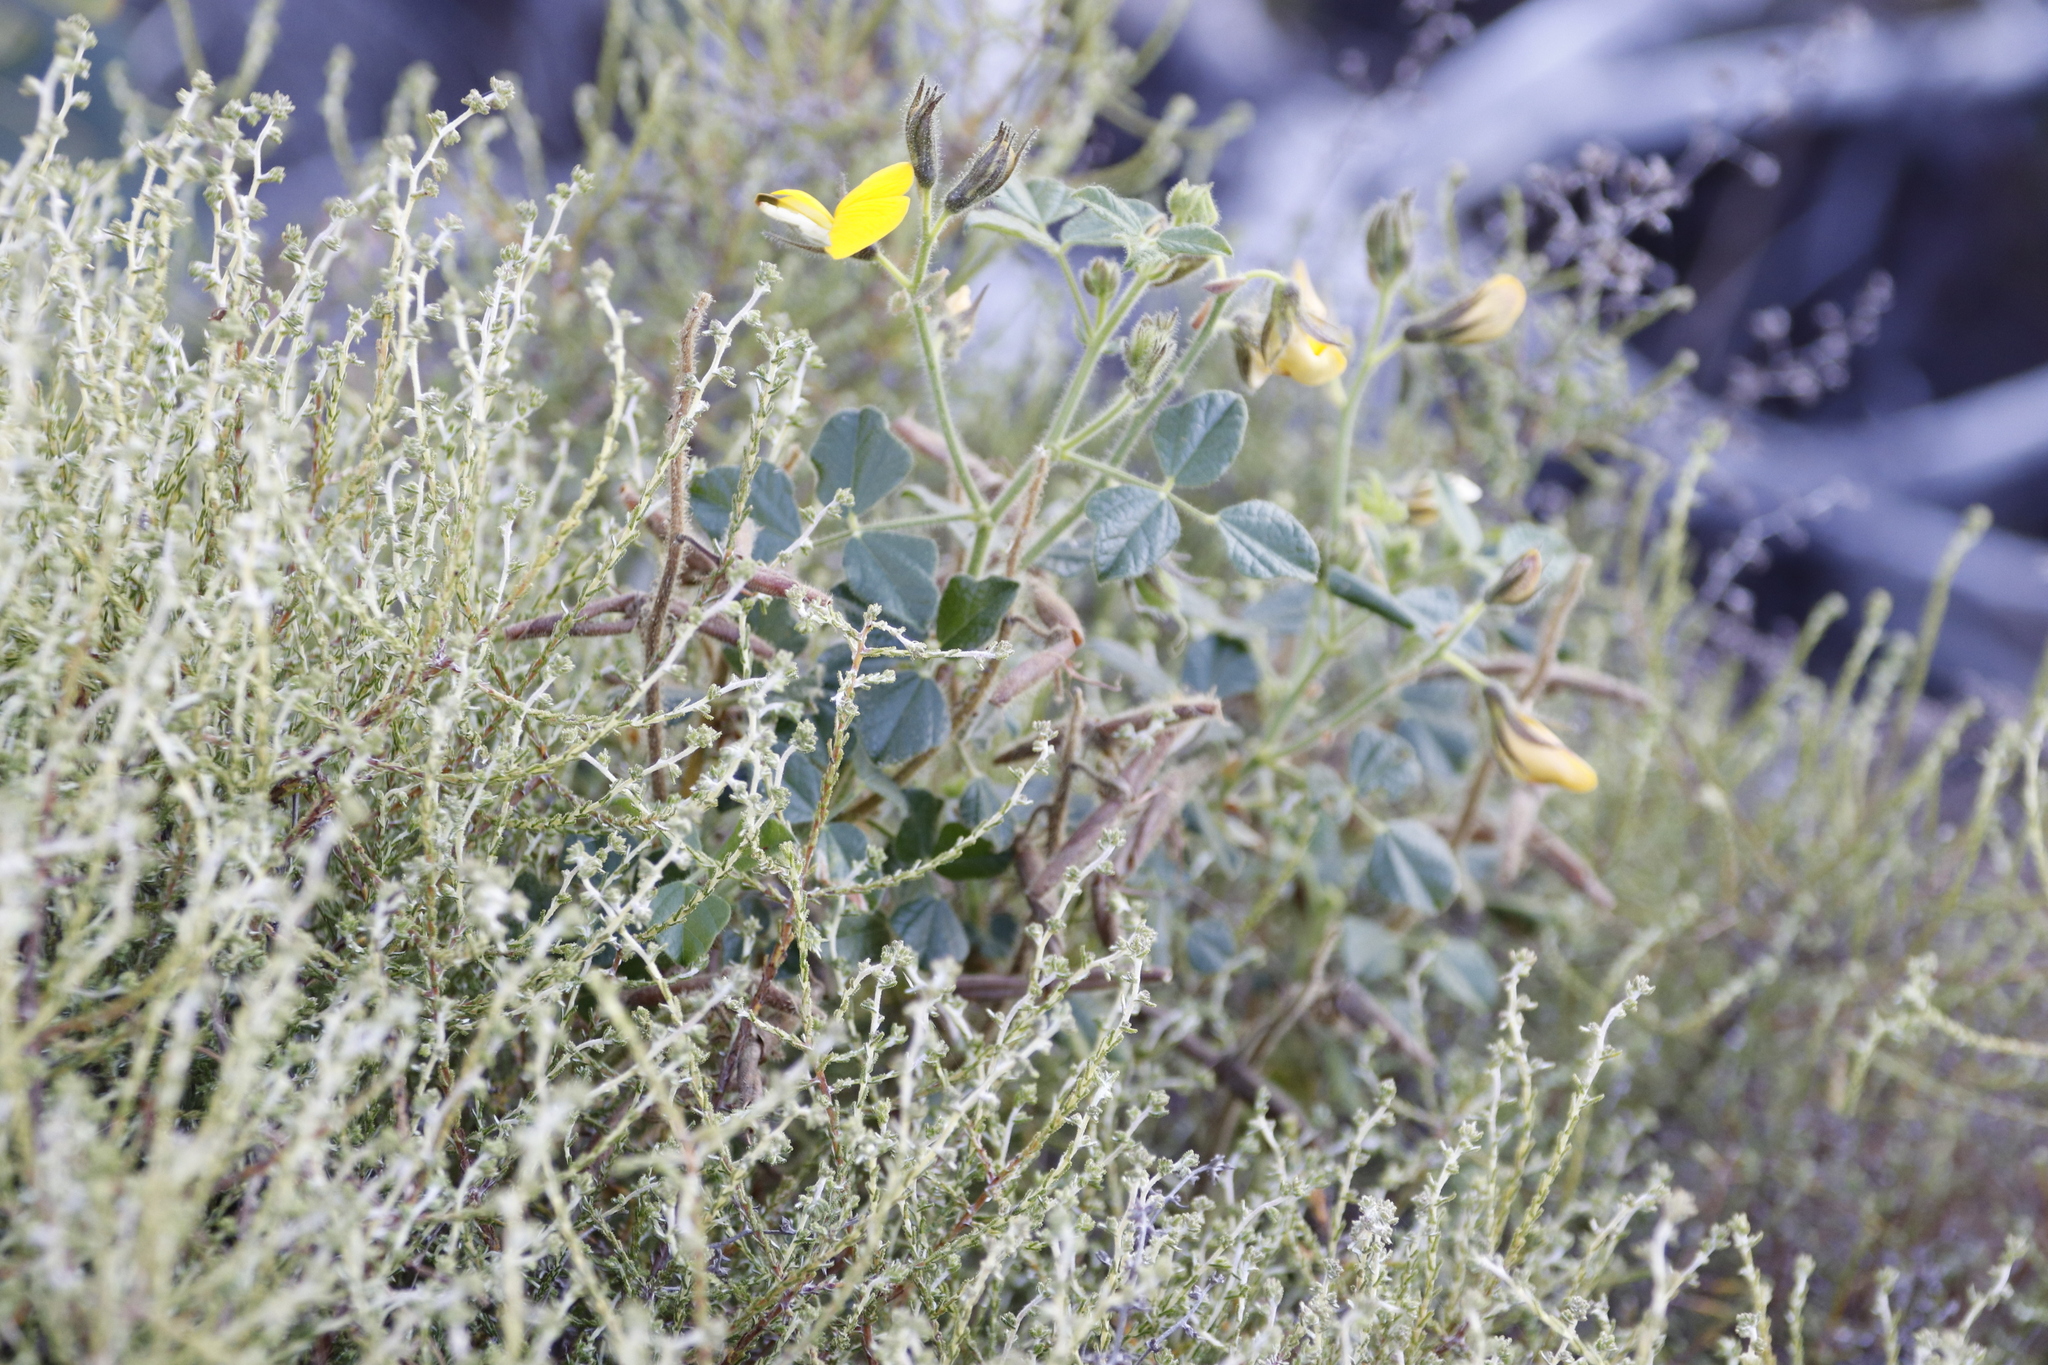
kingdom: Plantae
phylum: Tracheophyta
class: Magnoliopsida
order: Fabales
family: Fabaceae
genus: Bolusafra
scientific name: Bolusafra bituminosa
